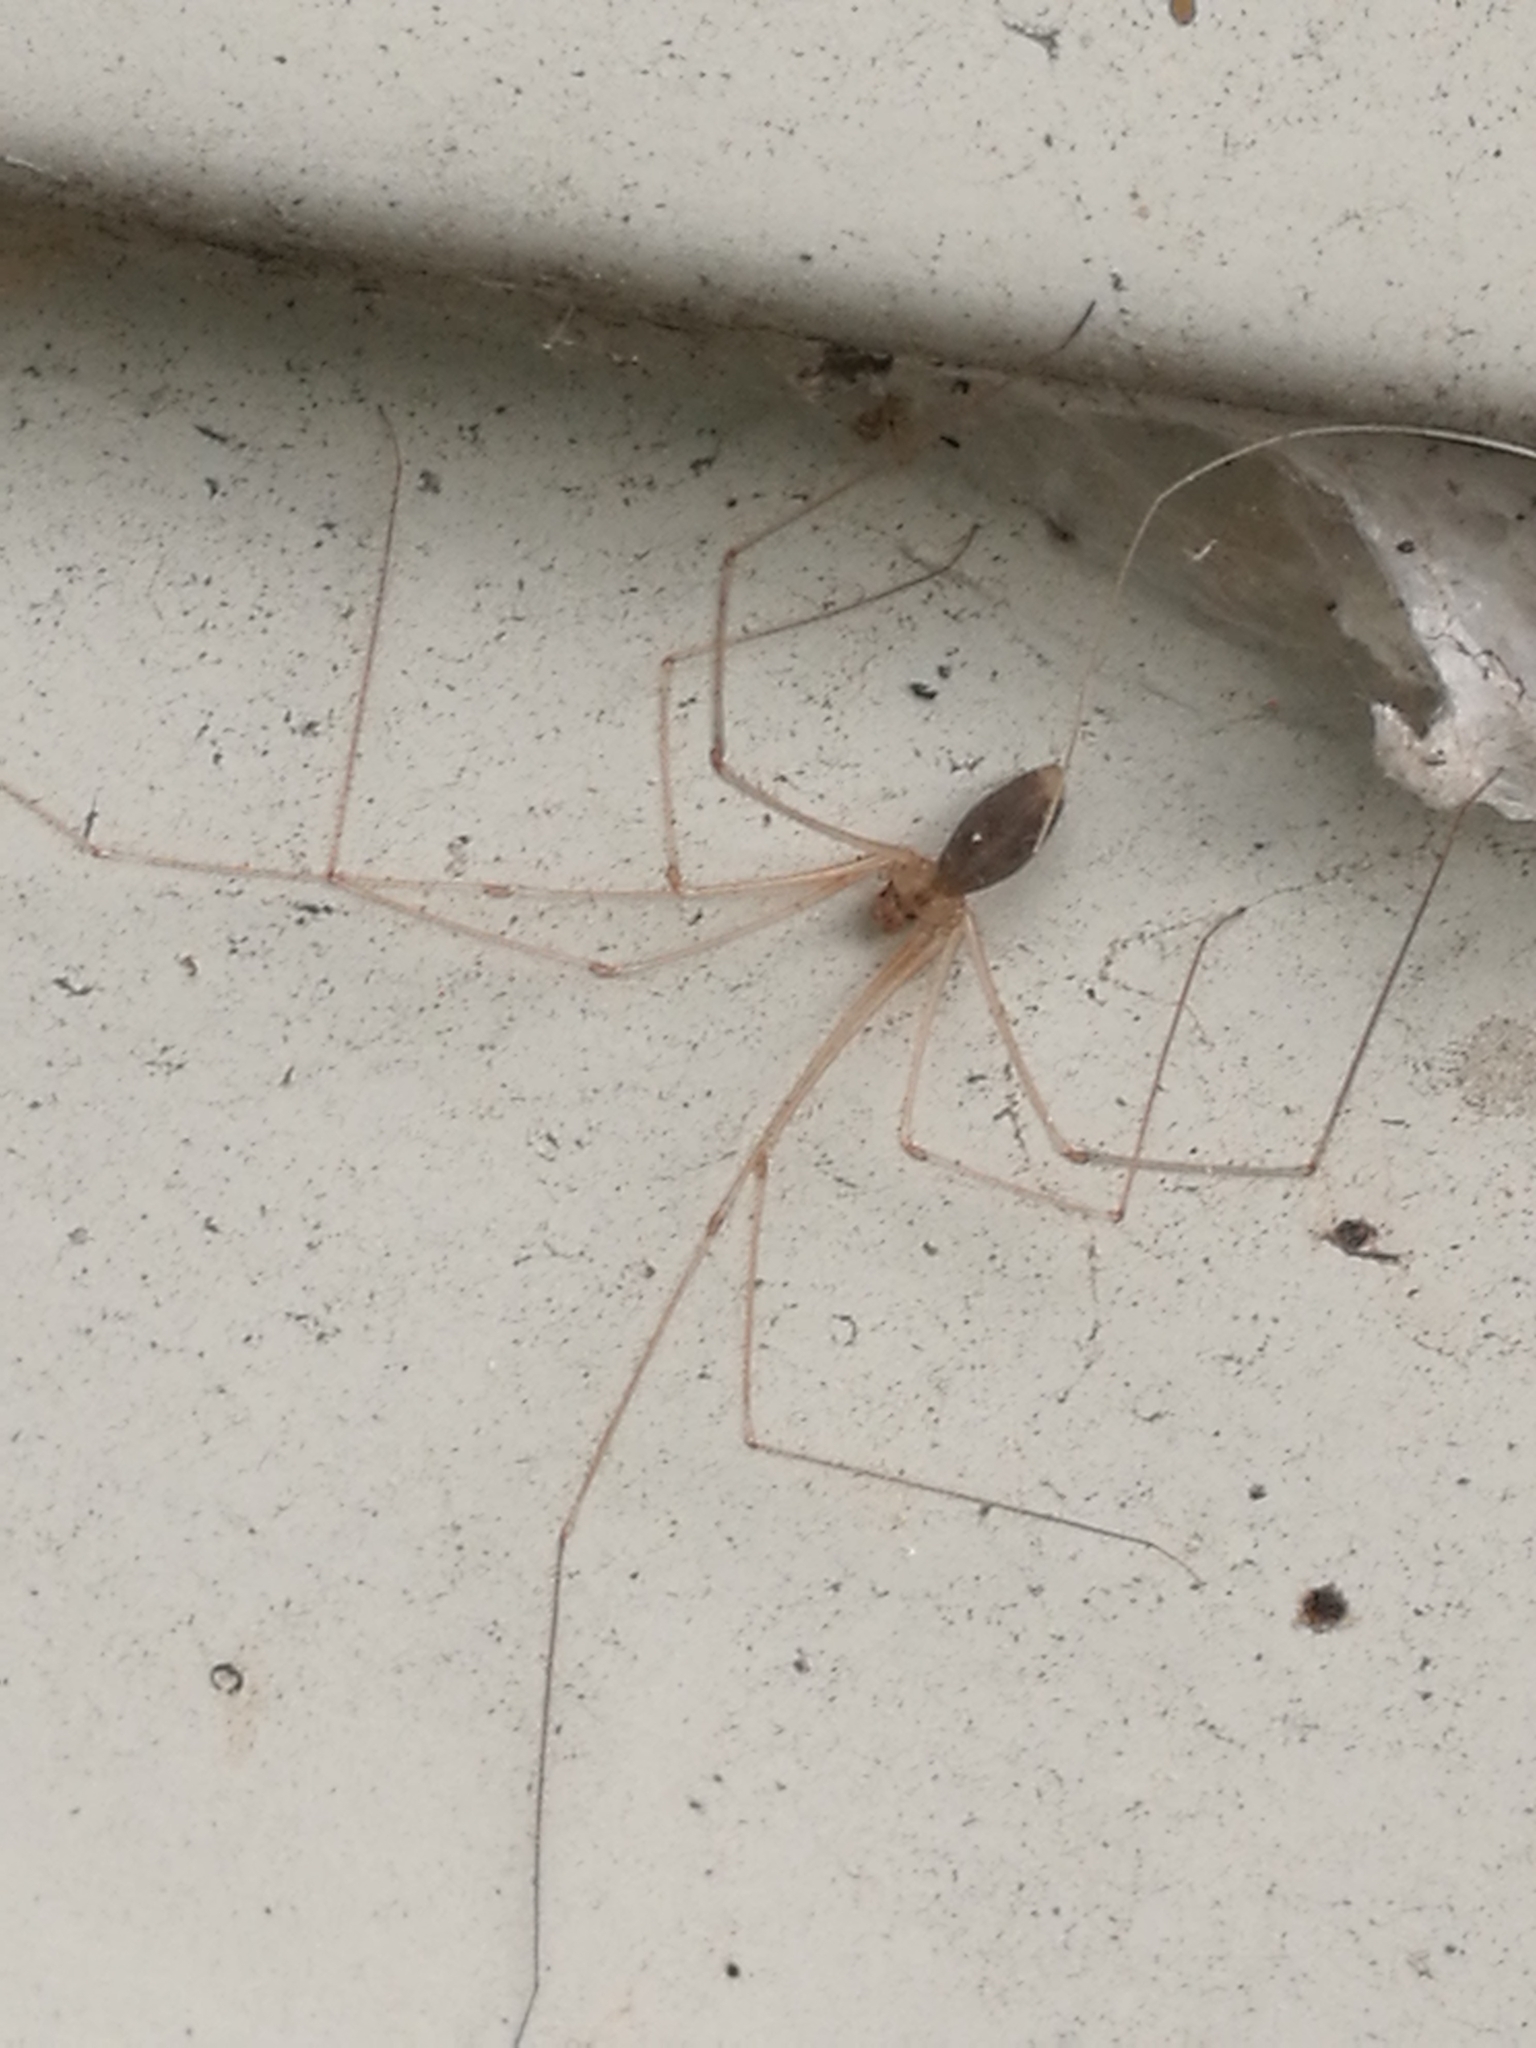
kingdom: Animalia
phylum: Arthropoda
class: Arachnida
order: Araneae
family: Pholcidae
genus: Pholcus
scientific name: Pholcus phalangioides
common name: Longbodied cellar spider
